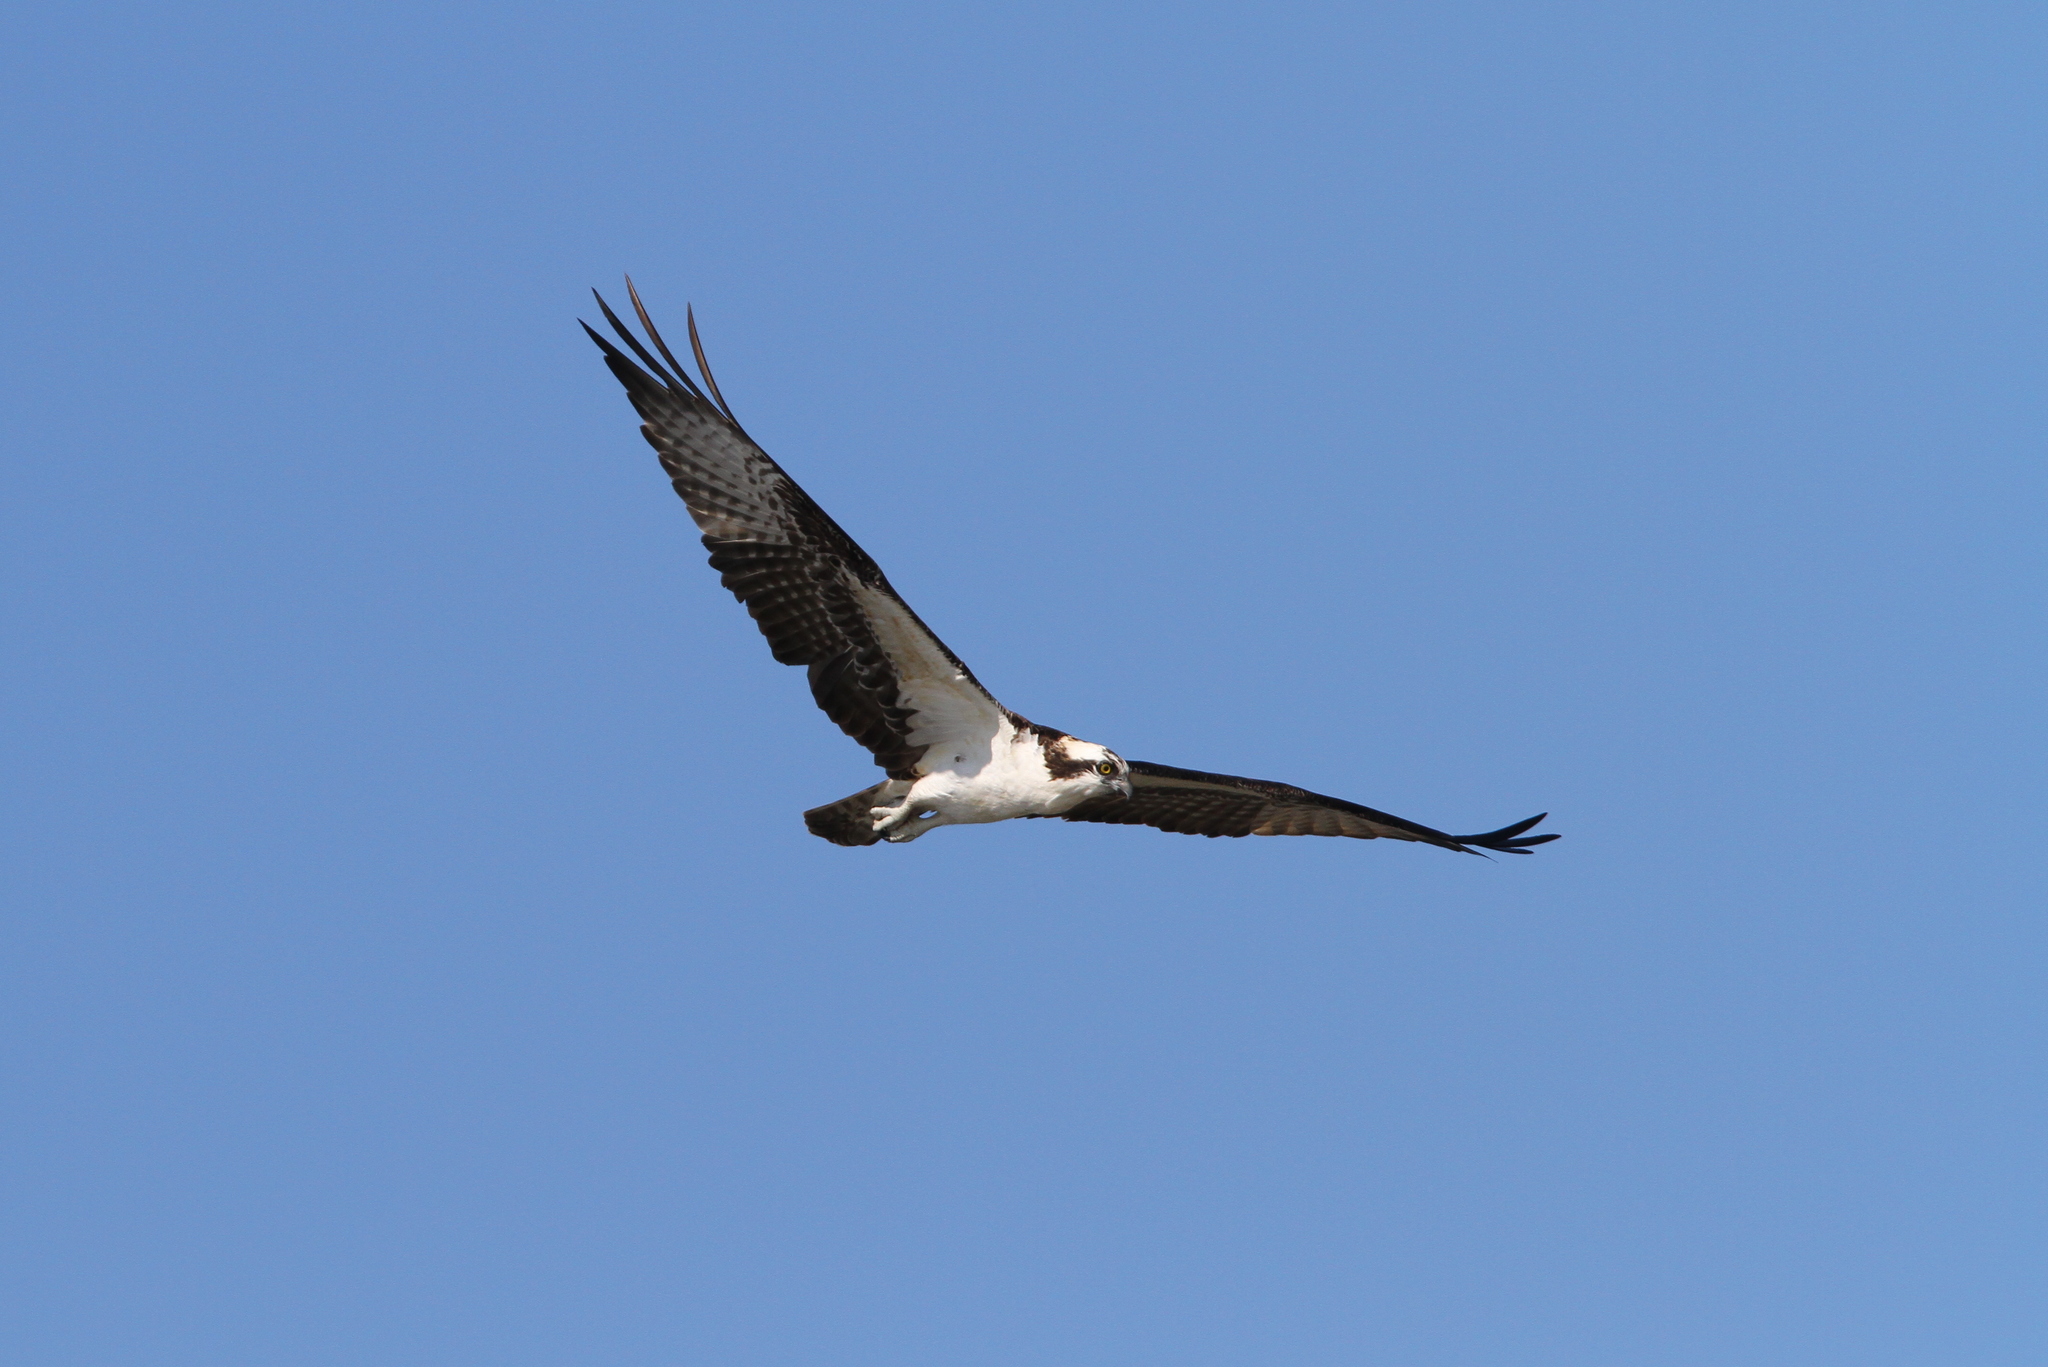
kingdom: Animalia
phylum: Chordata
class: Aves
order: Accipitriformes
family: Pandionidae
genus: Pandion
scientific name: Pandion haliaetus
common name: Osprey
